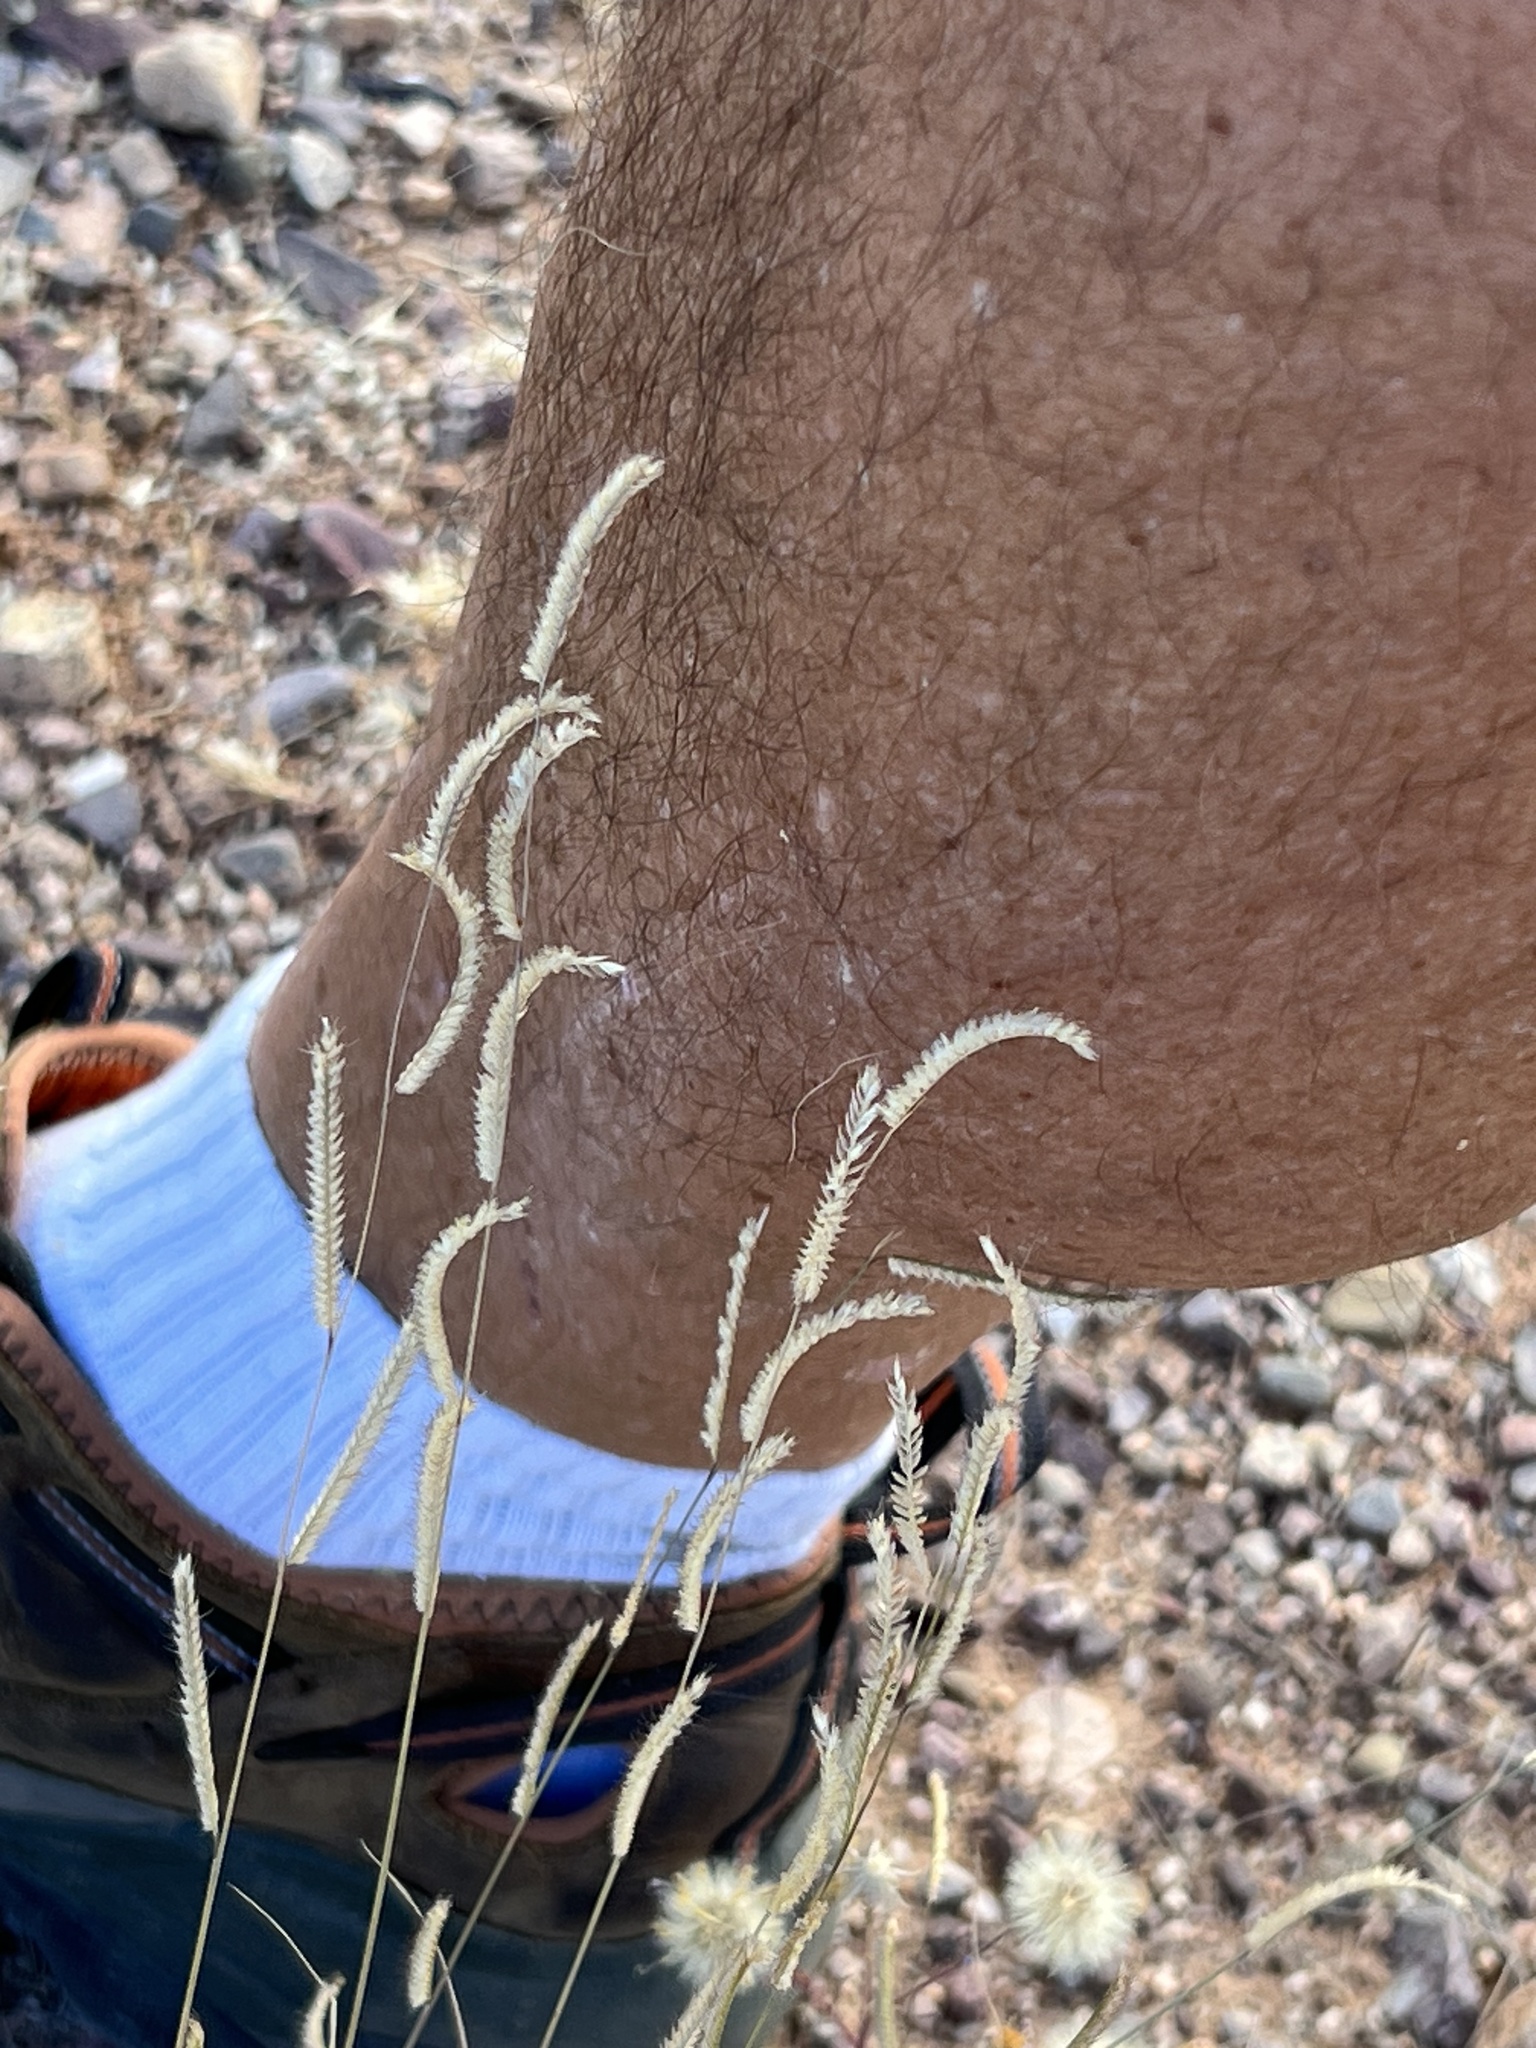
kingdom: Plantae
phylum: Tracheophyta
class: Liliopsida
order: Poales
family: Poaceae
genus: Bouteloua
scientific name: Bouteloua barbata
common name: Six-weeks grama
